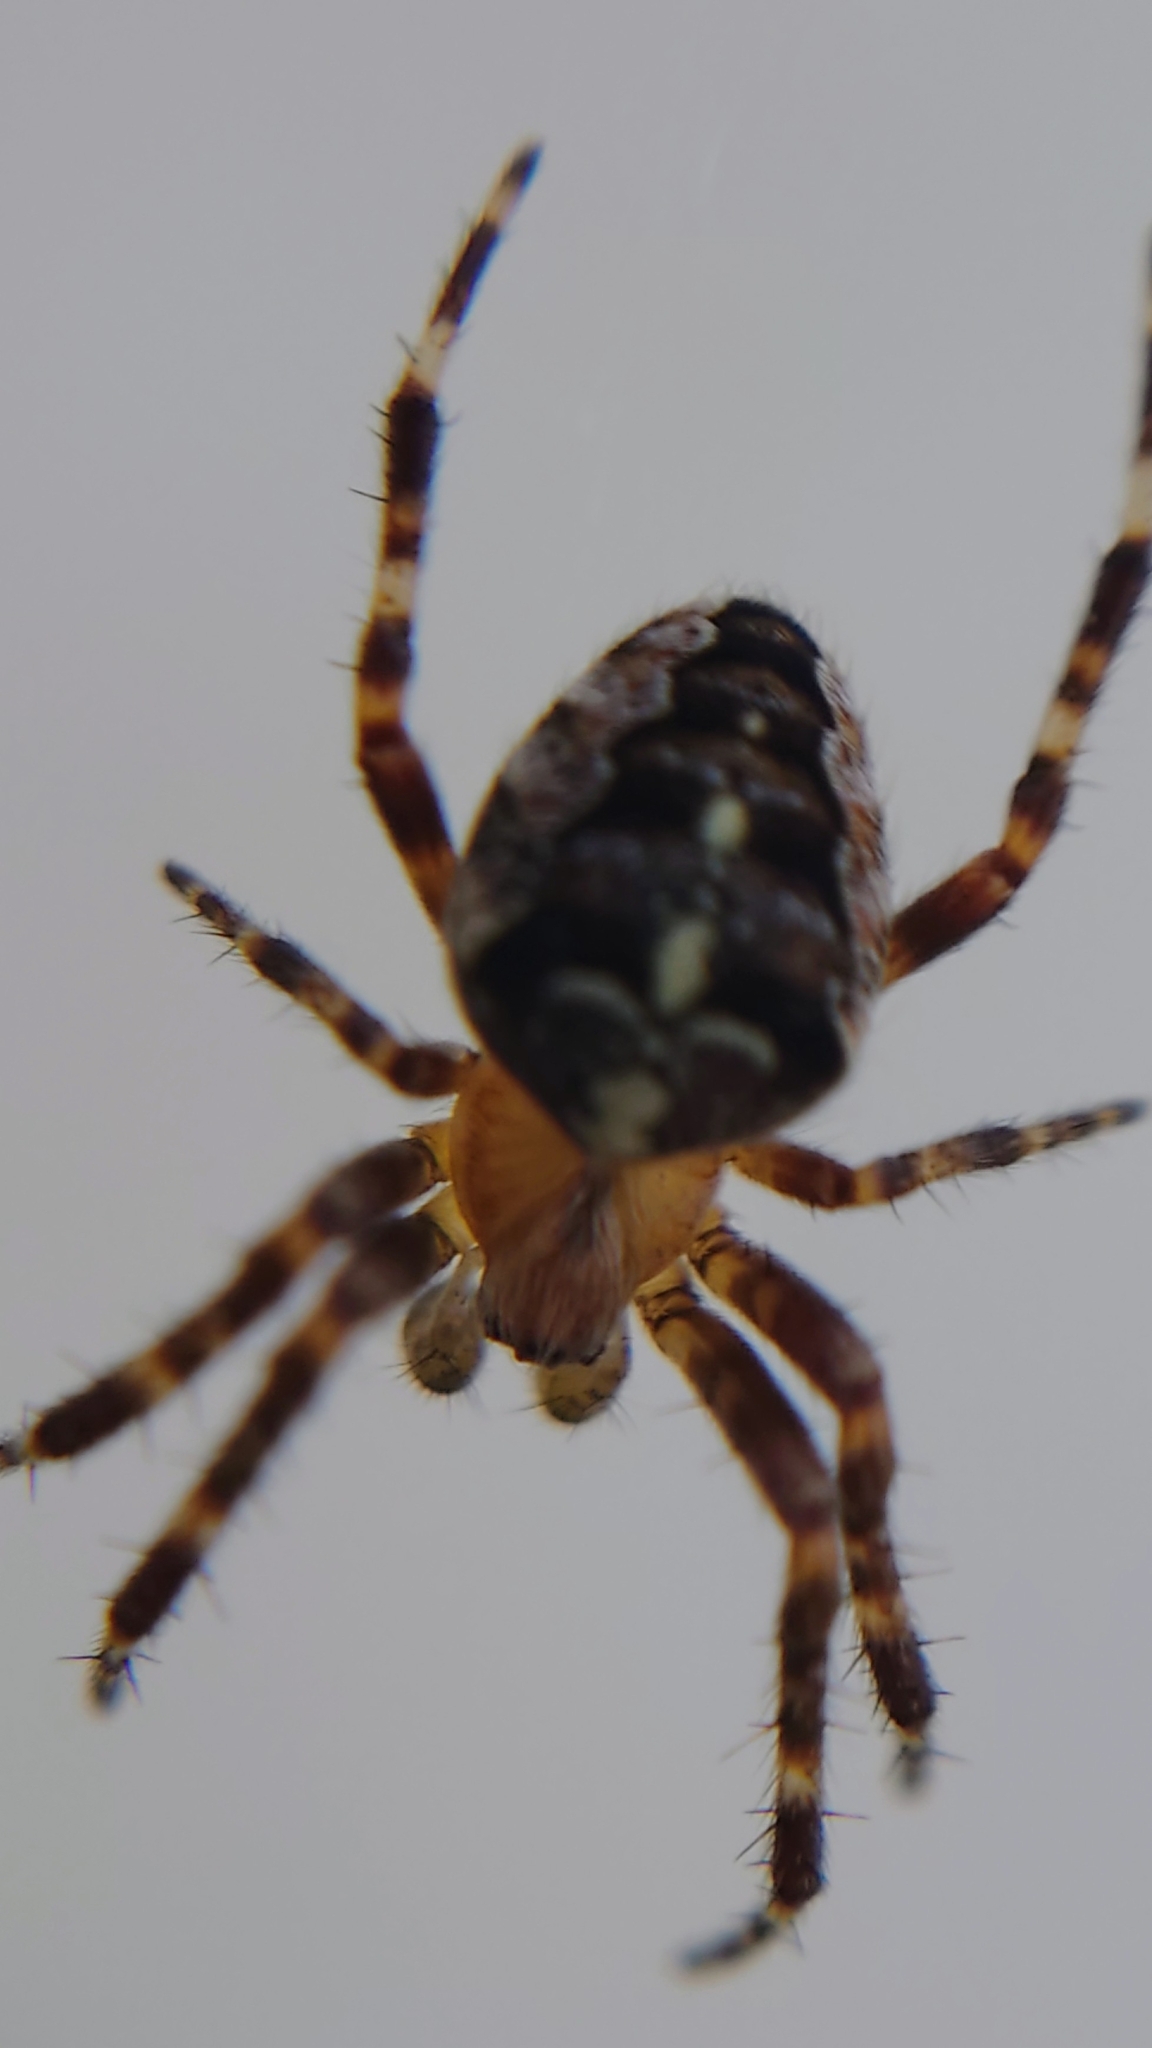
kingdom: Animalia
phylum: Arthropoda
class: Arachnida
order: Araneae
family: Araneidae
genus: Araneus
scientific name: Araneus diadematus
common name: Cross orbweaver
